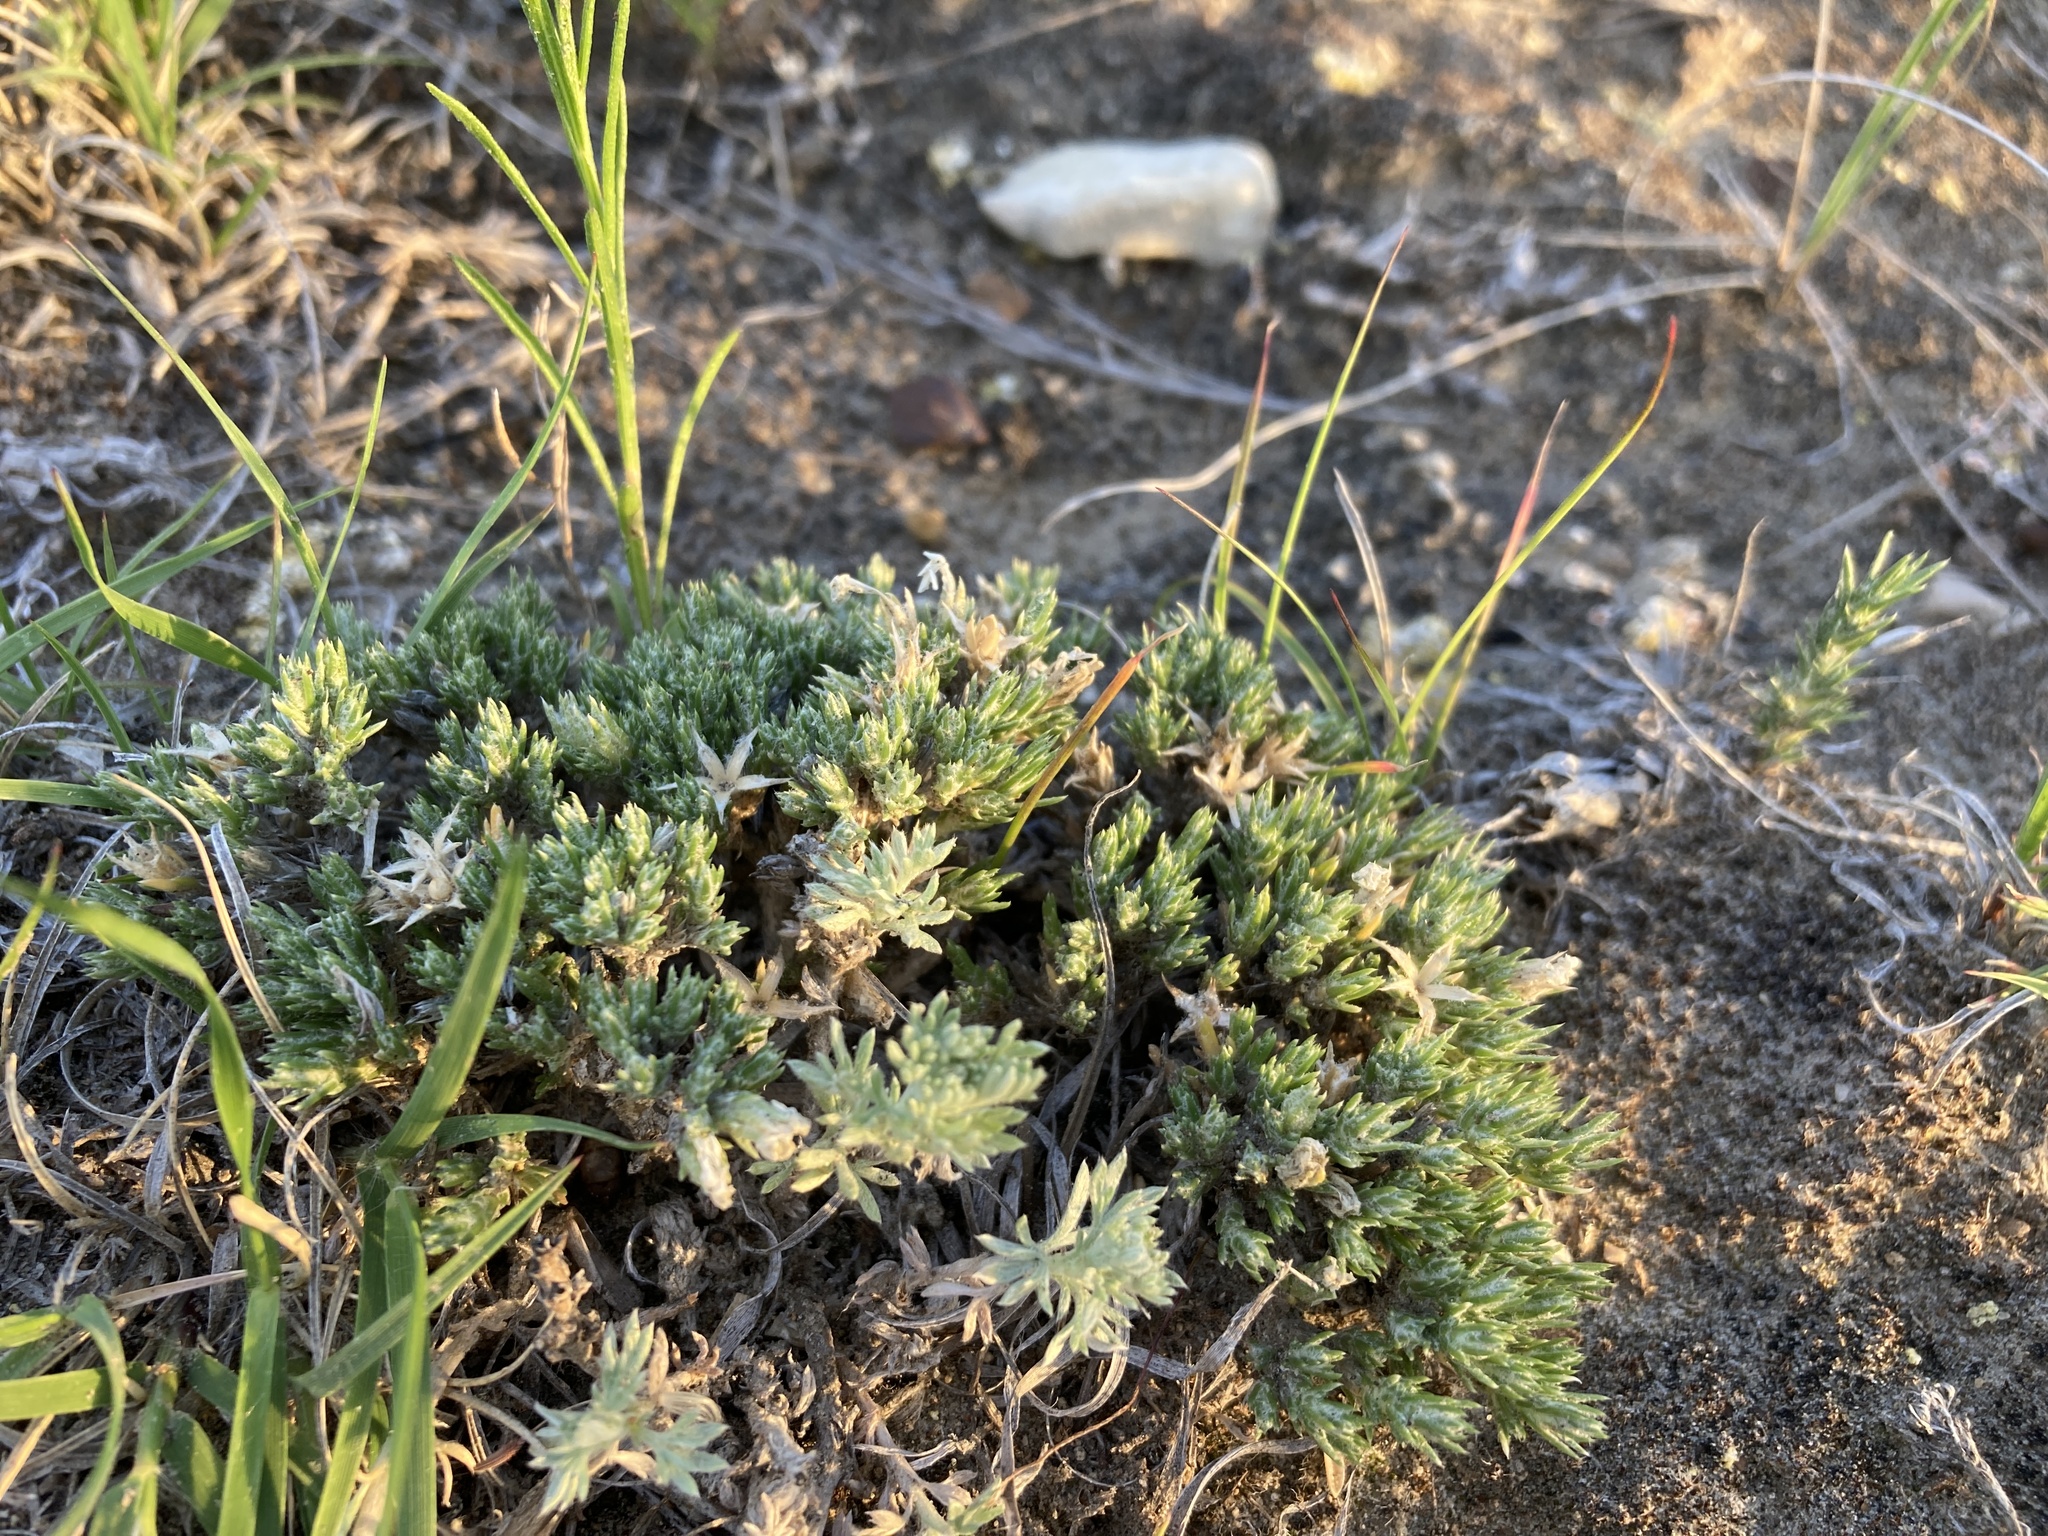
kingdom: Plantae
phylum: Tracheophyta
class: Magnoliopsida
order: Ericales
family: Polemoniaceae
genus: Phlox
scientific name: Phlox hoodii
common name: Moss phlox
